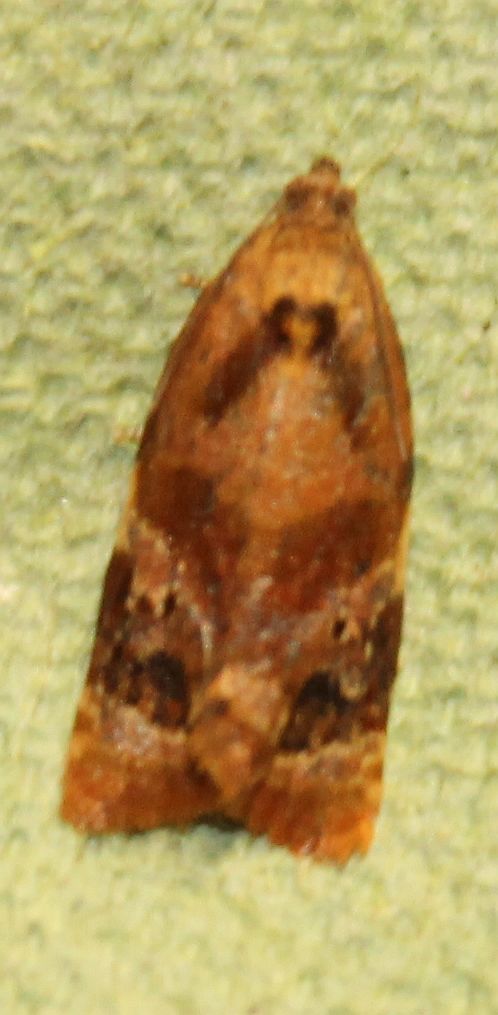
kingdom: Animalia
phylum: Arthropoda
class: Insecta
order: Lepidoptera
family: Tortricidae
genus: Ditula
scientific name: Ditula angustiorana
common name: Red-barred tortrix
